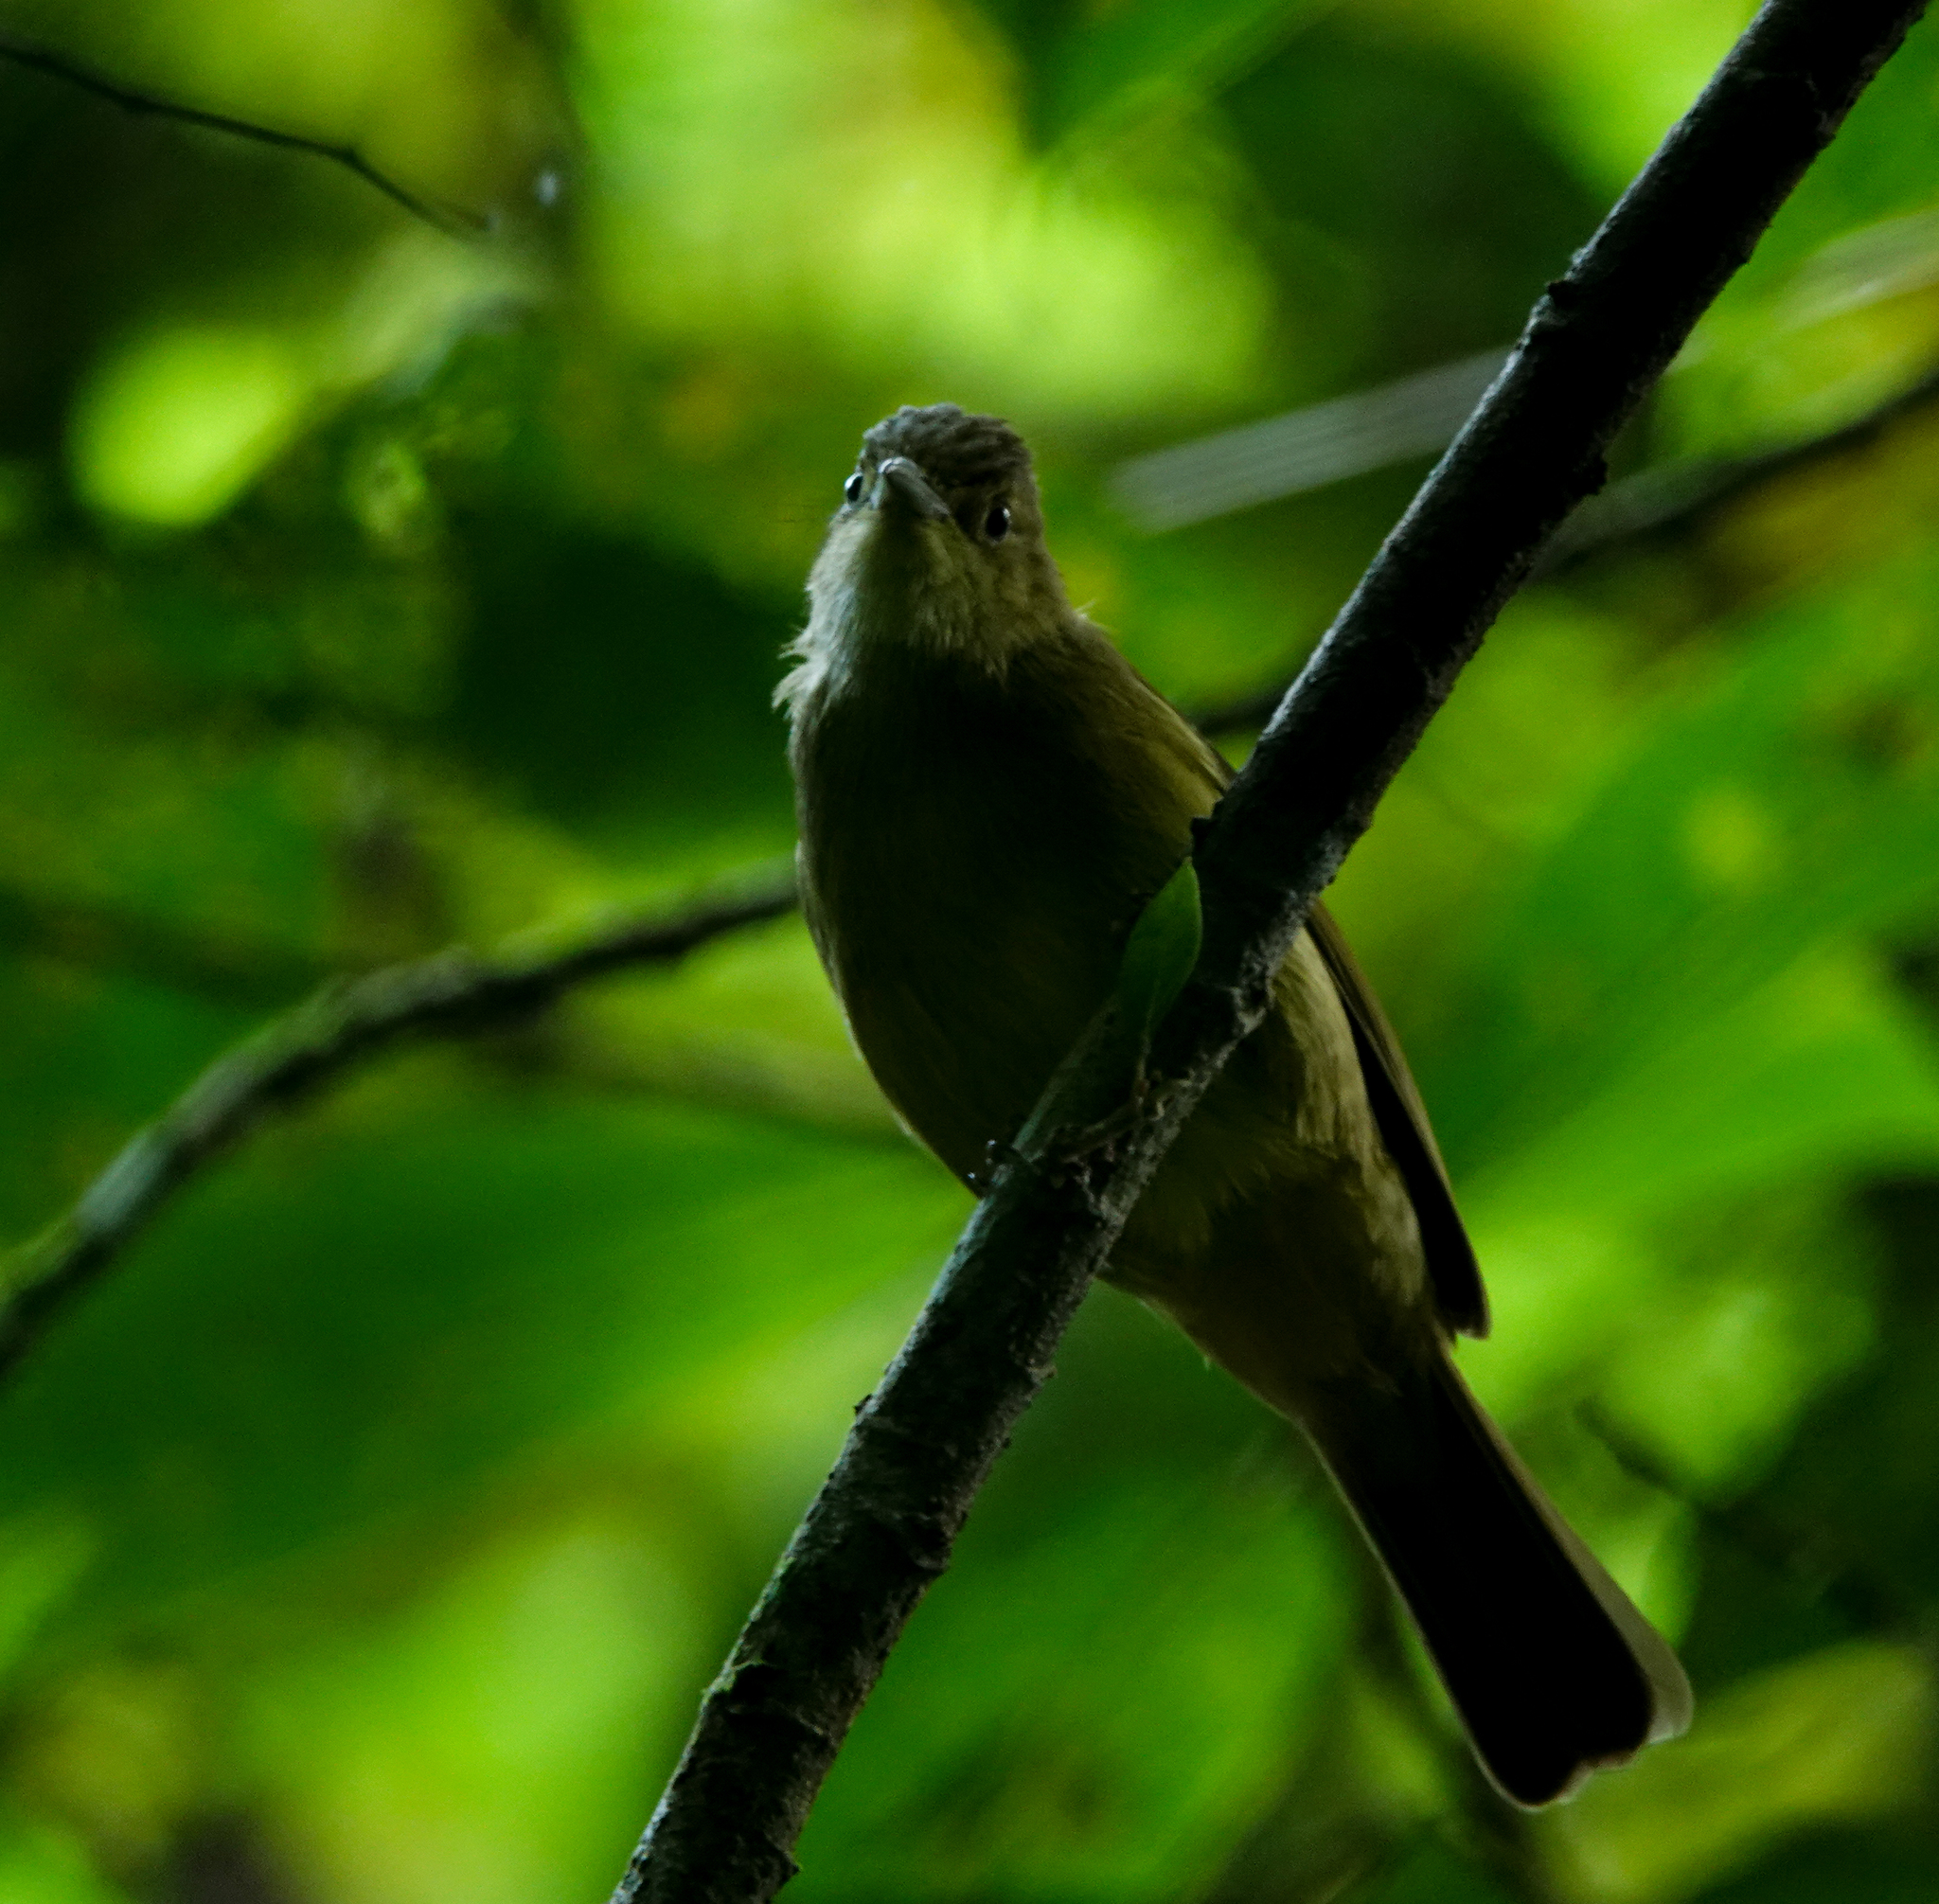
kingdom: Animalia
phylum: Chordata
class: Aves
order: Passeriformes
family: Pycnonotidae
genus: Iole
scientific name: Iole virescens
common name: Olive bulbul
